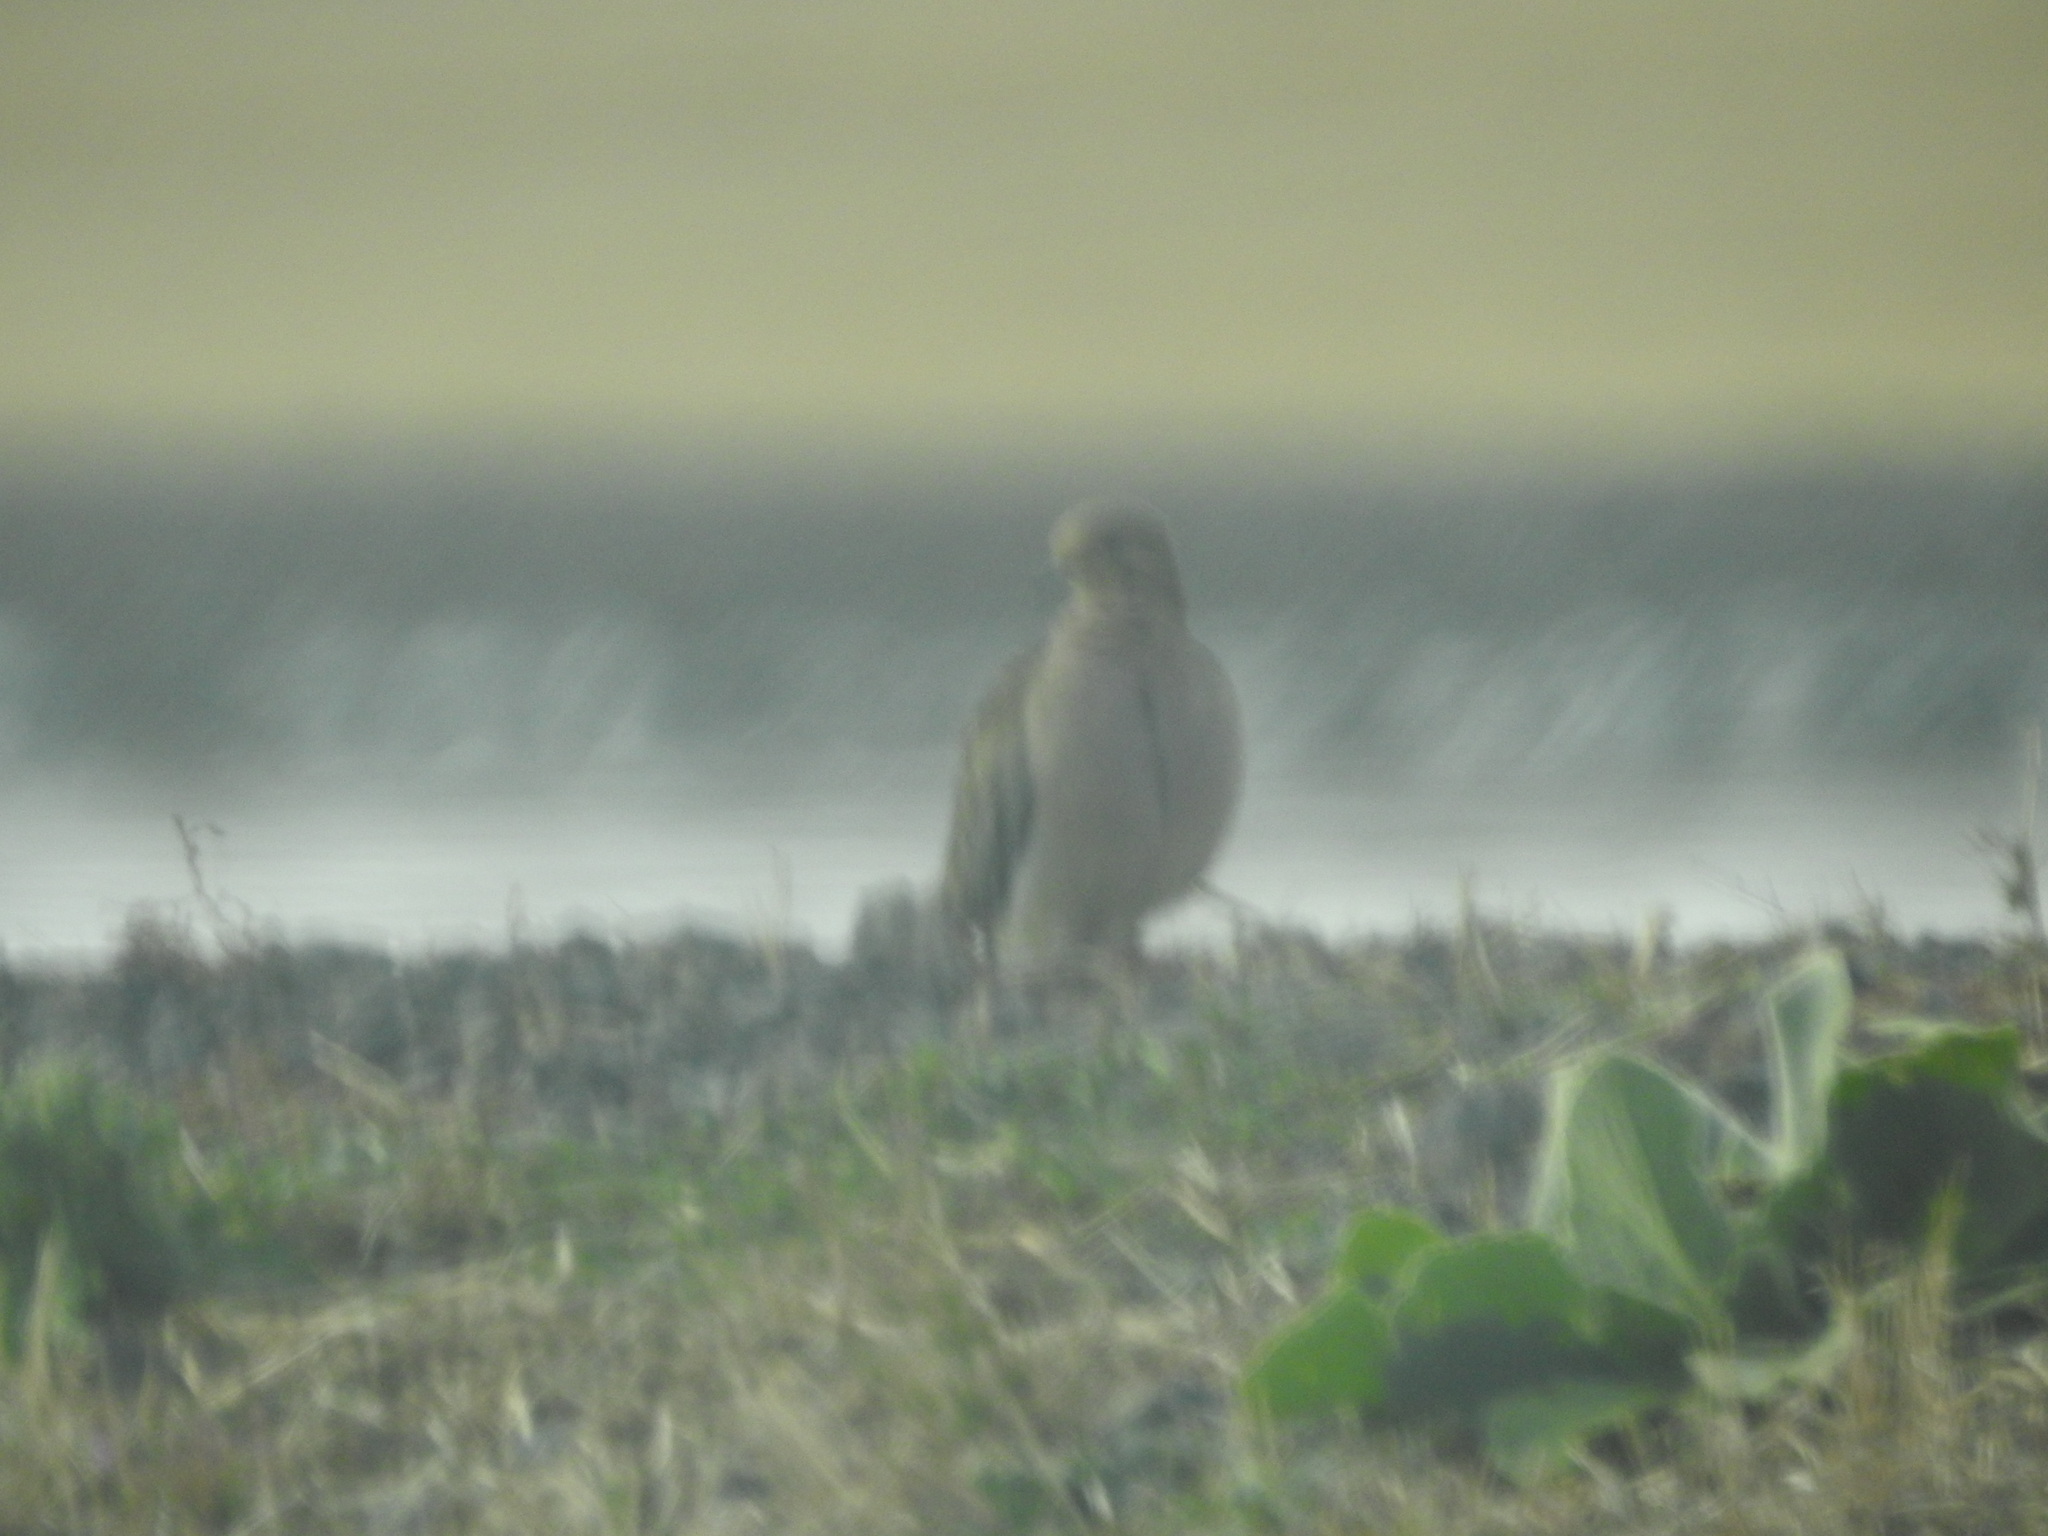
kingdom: Animalia
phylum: Chordata
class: Aves
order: Columbiformes
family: Columbidae
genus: Zenaida
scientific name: Zenaida macroura
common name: Mourning dove
